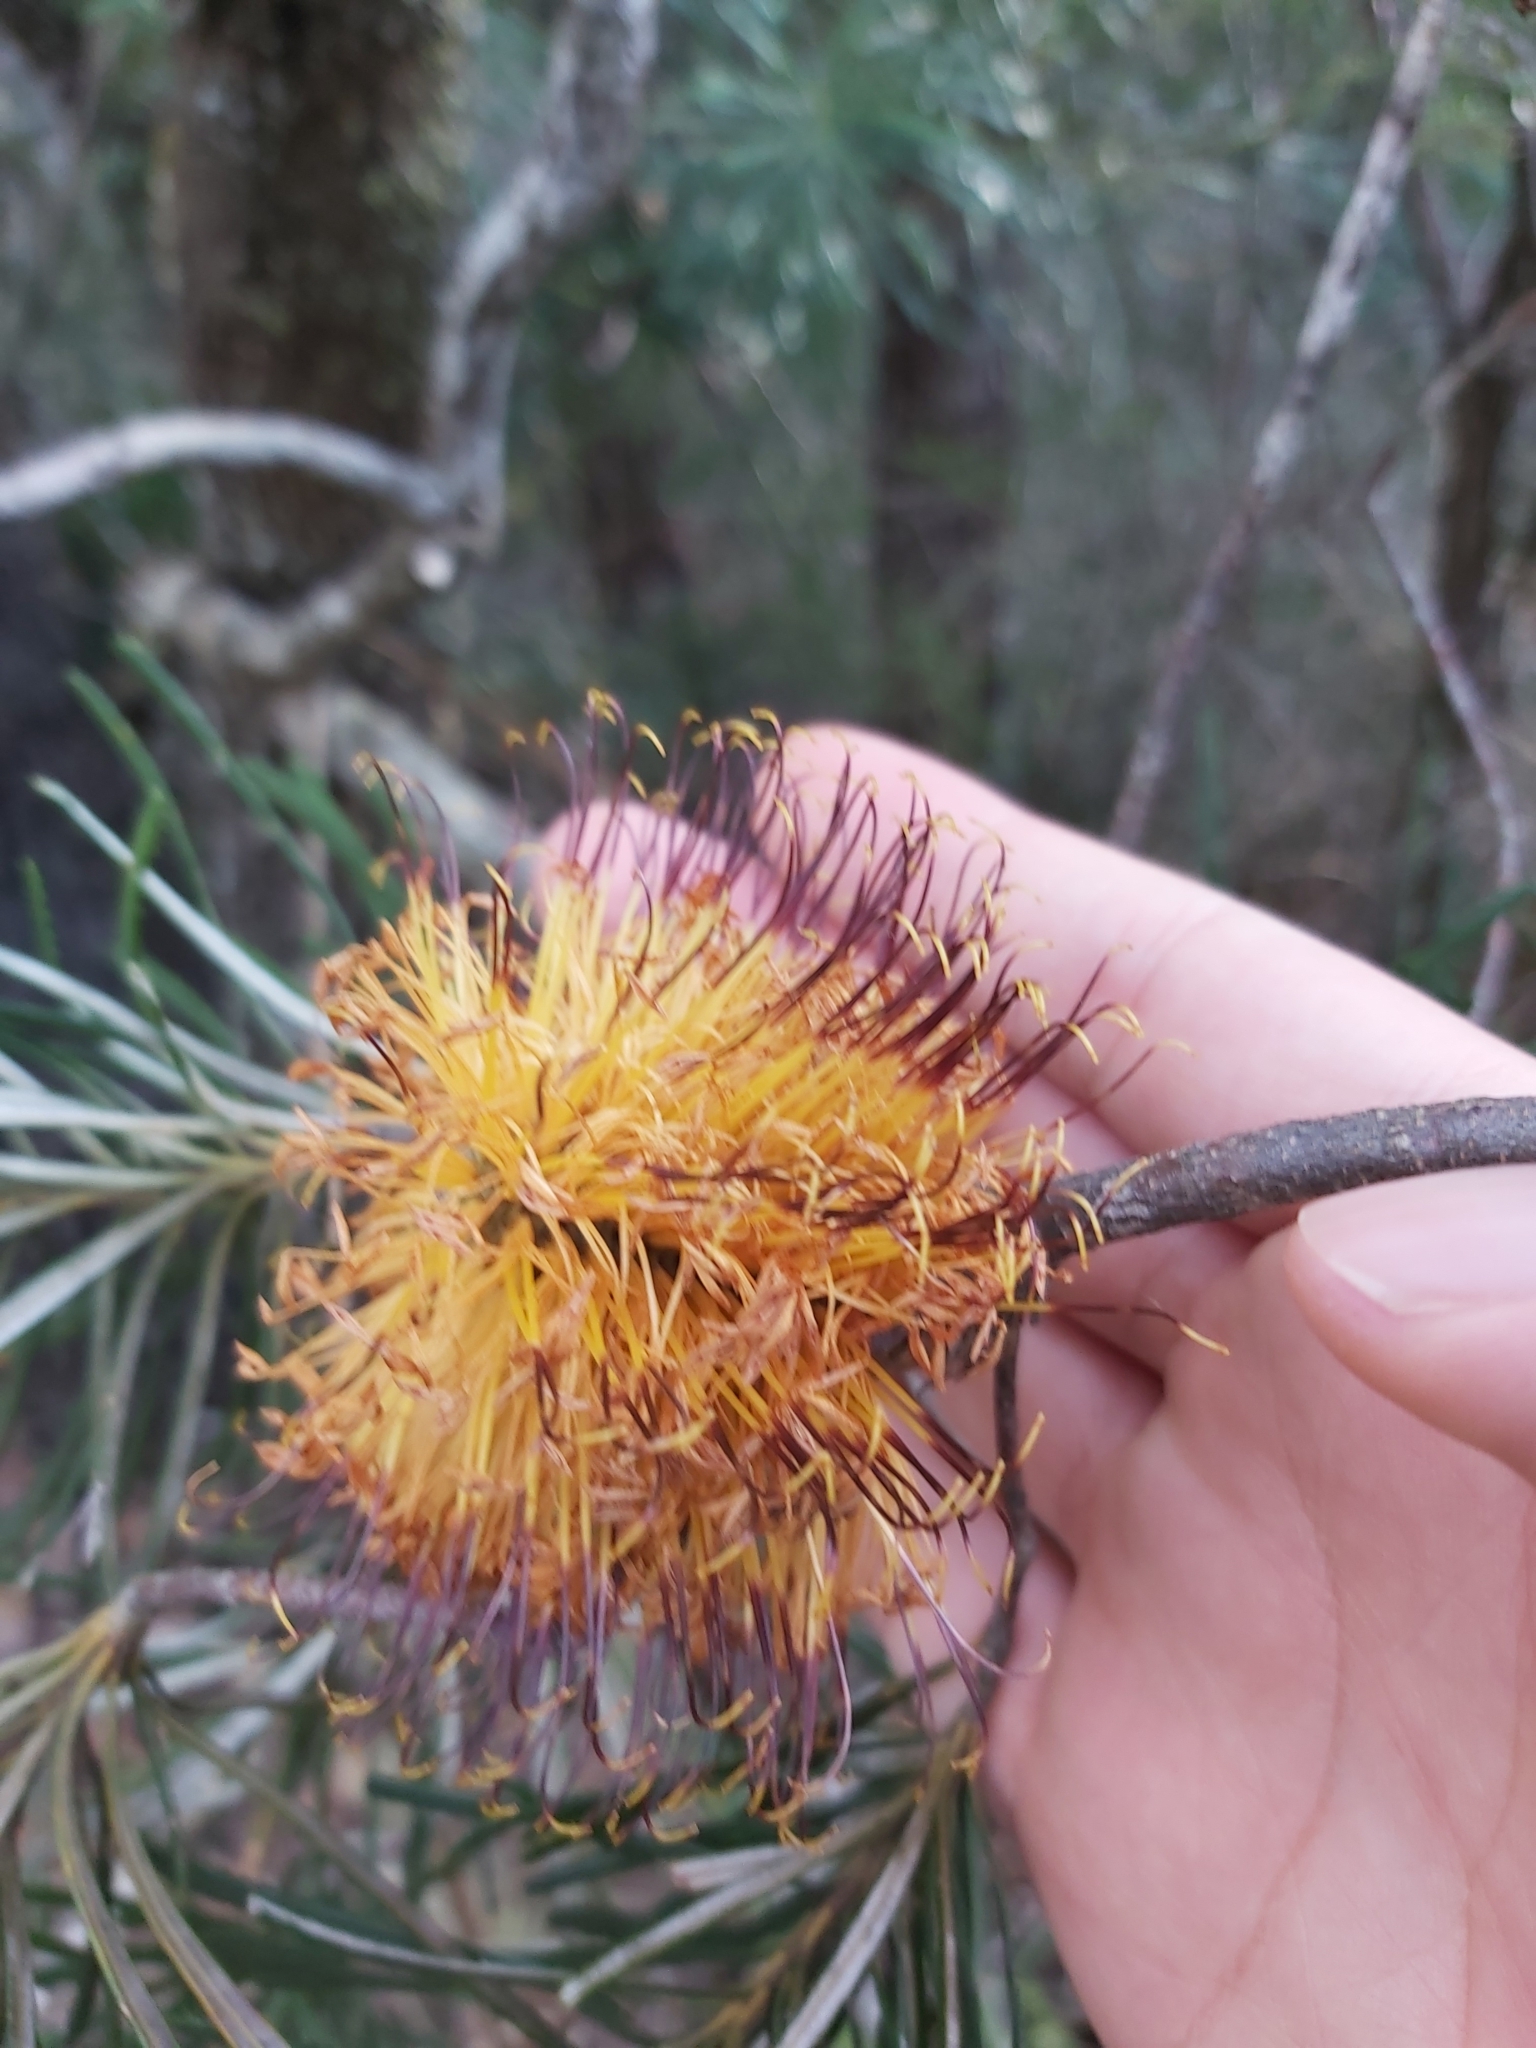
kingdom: Plantae
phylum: Tracheophyta
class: Magnoliopsida
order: Proteales
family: Proteaceae
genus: Banksia
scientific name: Banksia spinulosa
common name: Hairpin banksia
